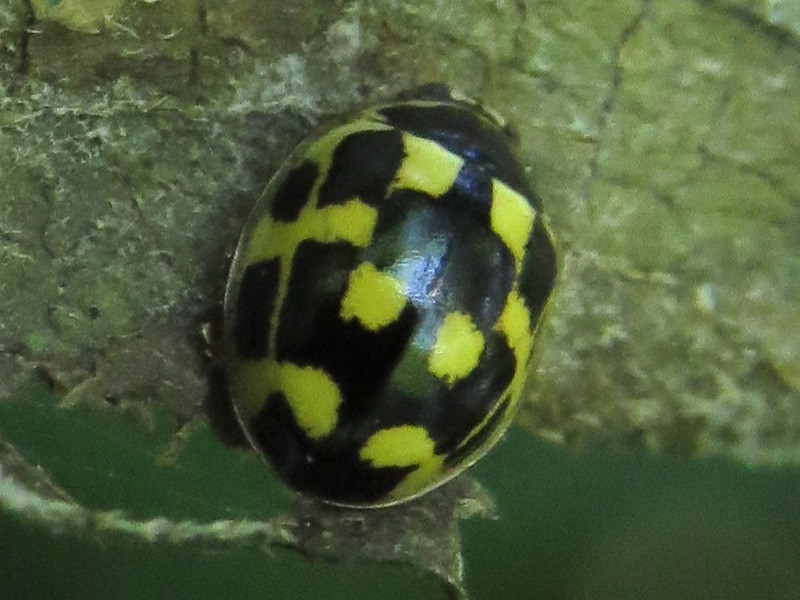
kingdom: Animalia
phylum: Arthropoda
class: Insecta
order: Coleoptera
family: Coccinellidae
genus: Propylaea
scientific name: Propylaea quatuordecimpunctata
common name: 14-spotted ladybird beetle
